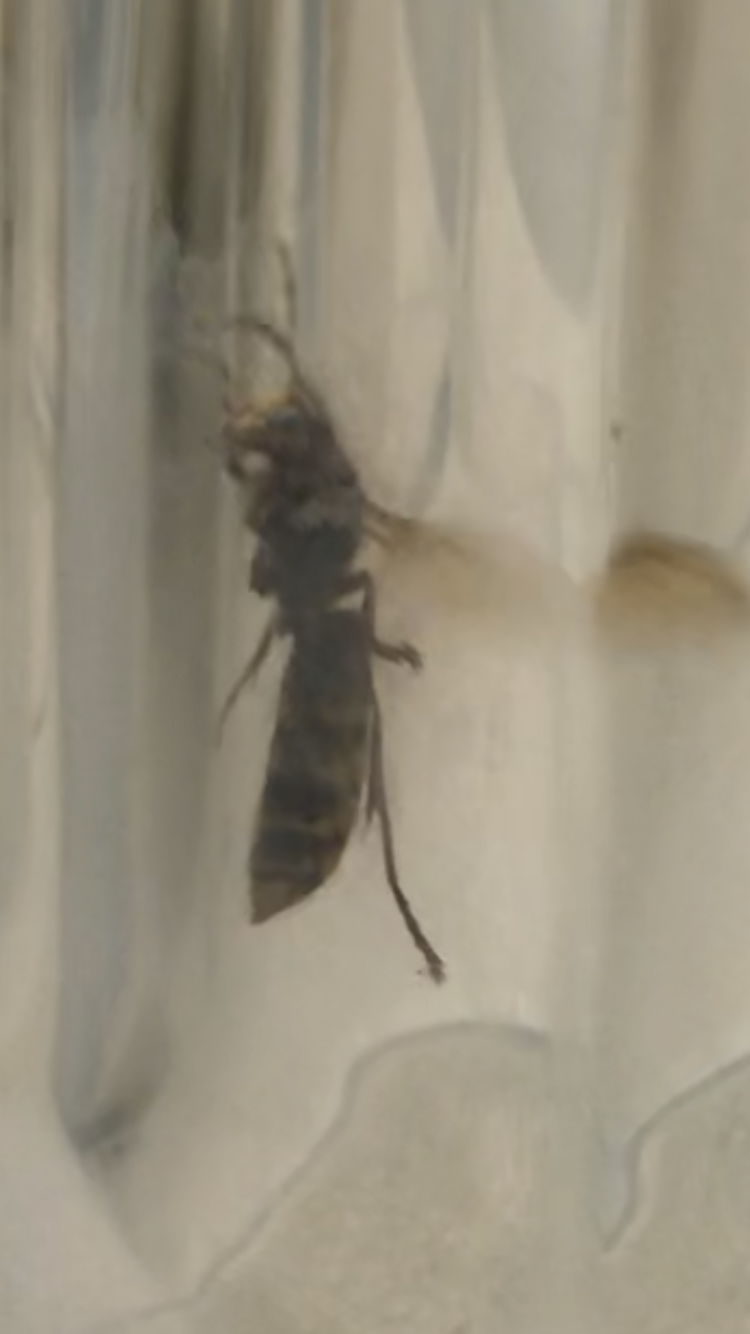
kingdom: Animalia
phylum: Arthropoda
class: Insecta
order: Hymenoptera
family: Vespidae
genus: Vespa
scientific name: Vespa crabro
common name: Hornet
